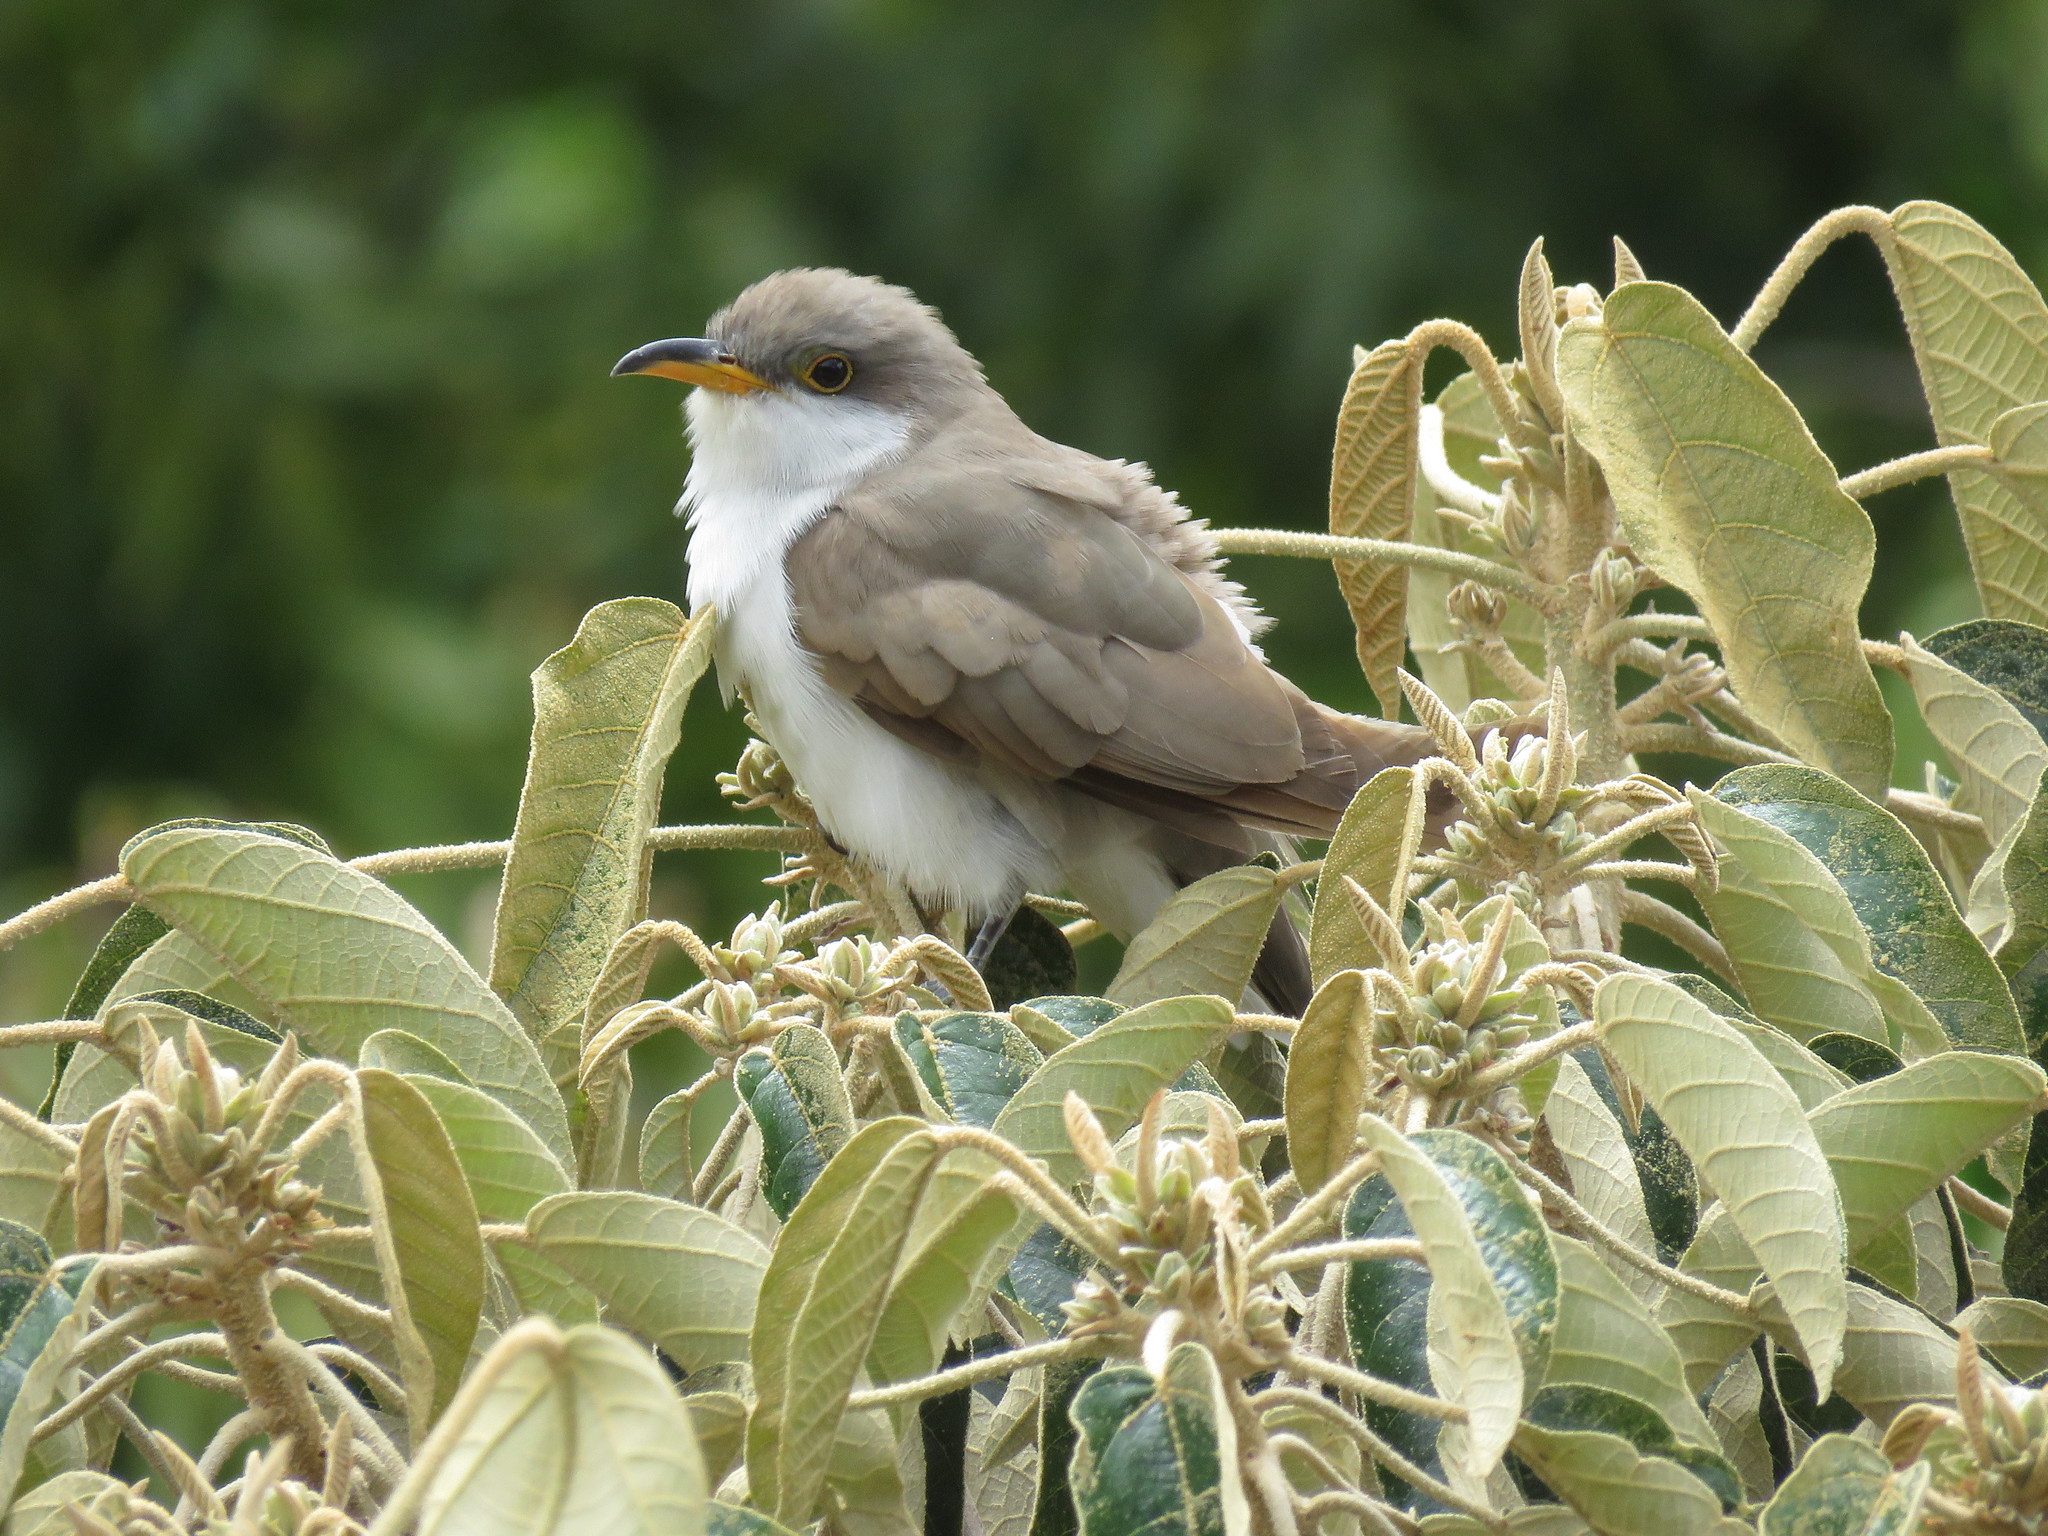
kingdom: Animalia
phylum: Chordata
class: Aves
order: Cuculiformes
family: Cuculidae
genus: Coccyzus
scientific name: Coccyzus americanus
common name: Yellow-billed cuckoo
